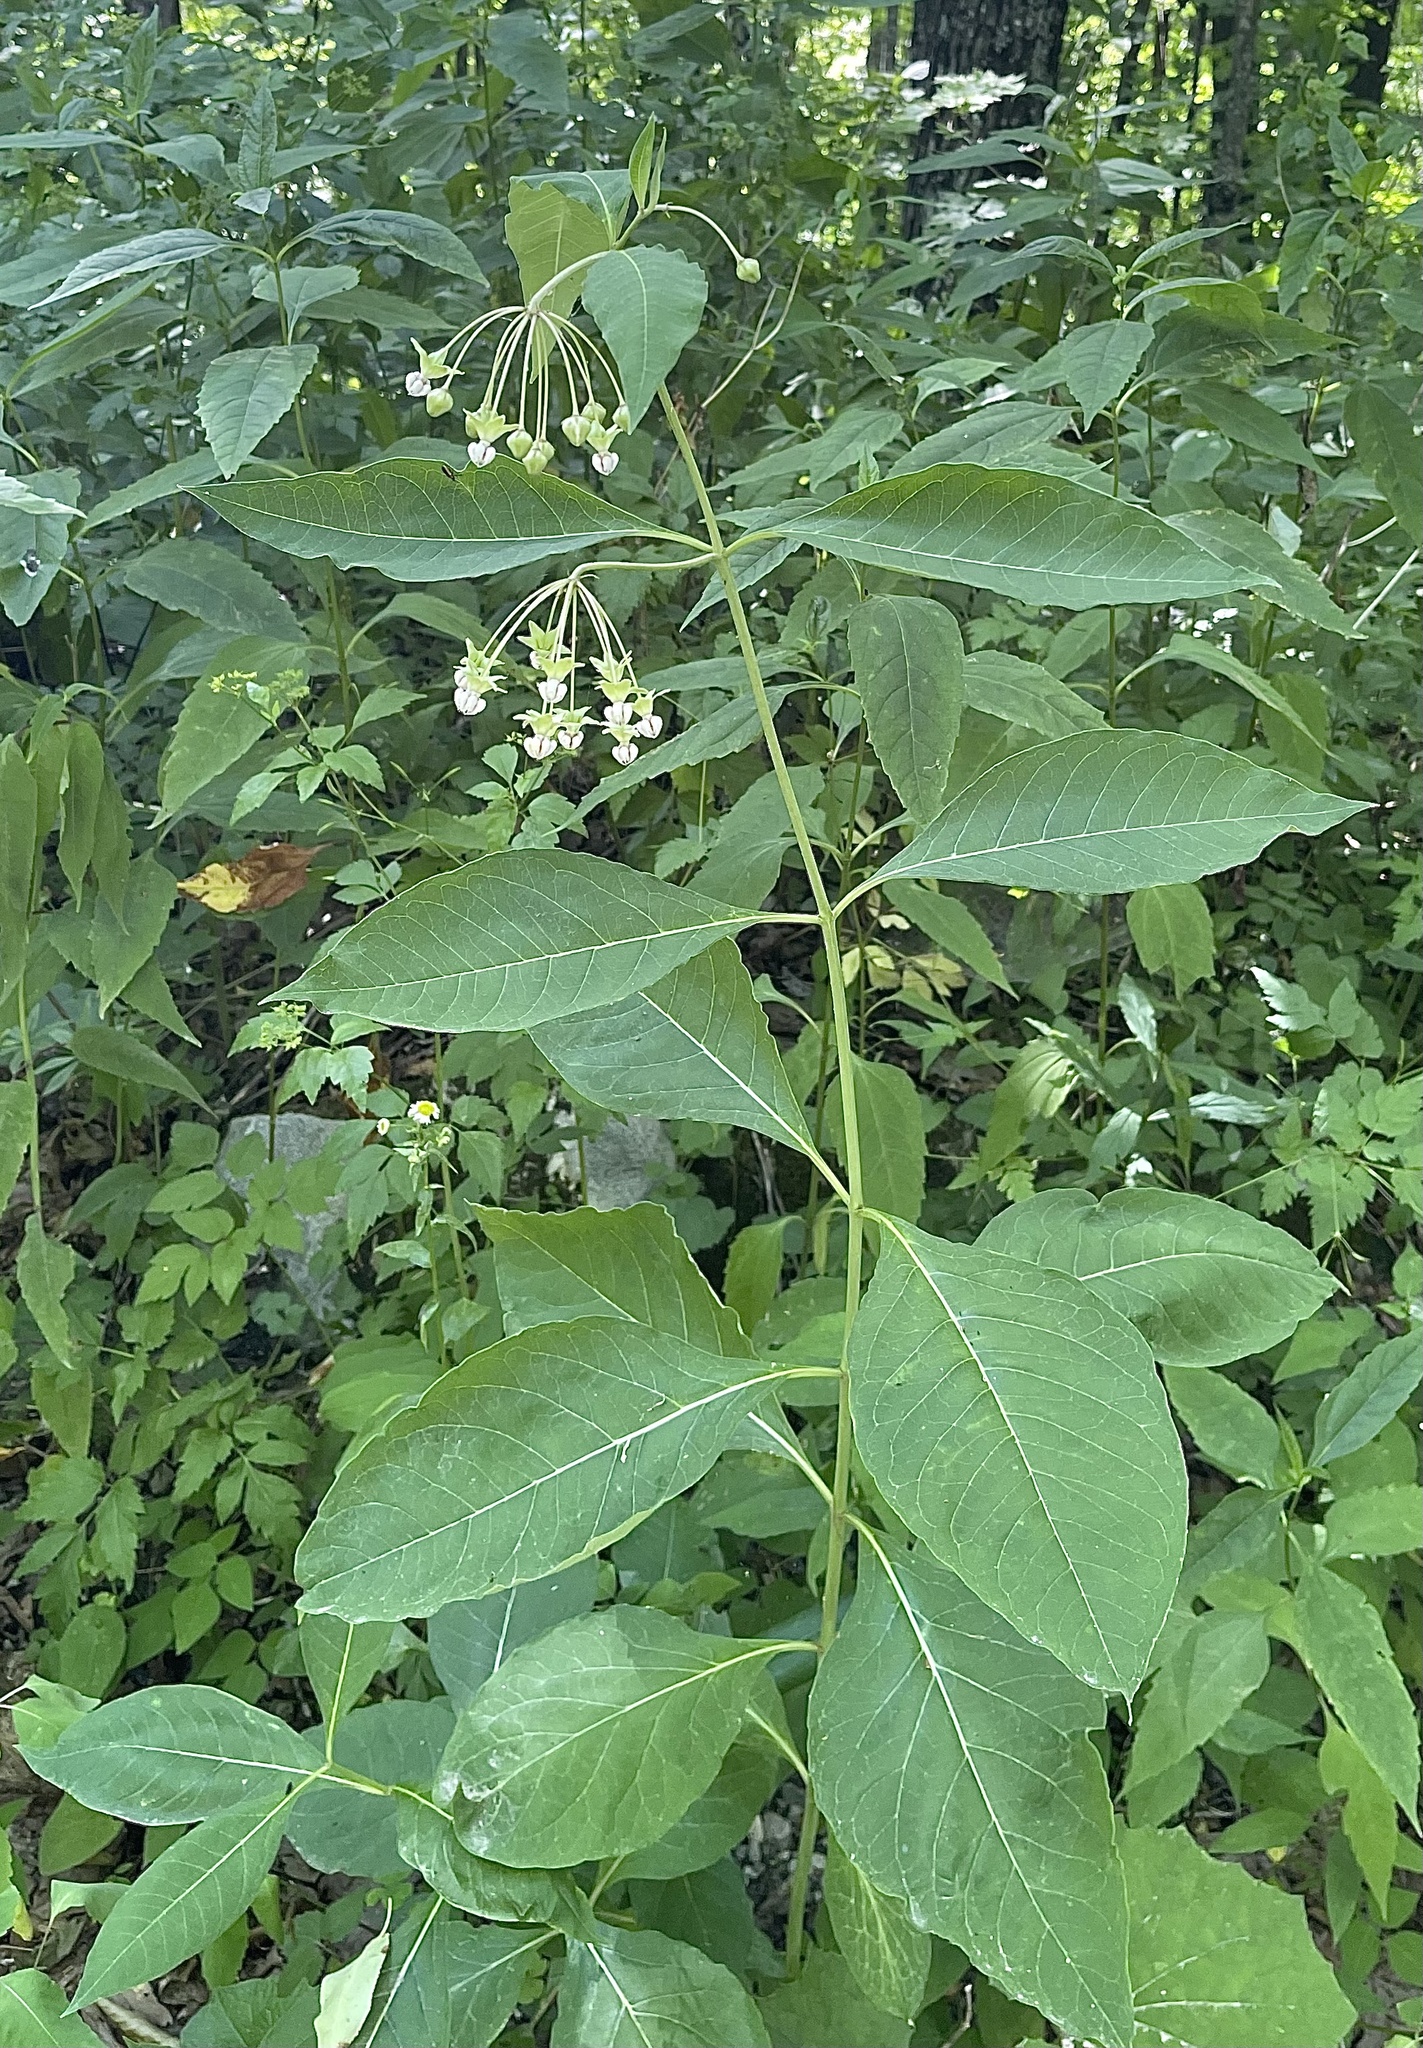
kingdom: Plantae
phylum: Tracheophyta
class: Magnoliopsida
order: Gentianales
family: Apocynaceae
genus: Asclepias
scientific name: Asclepias exaltata
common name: Poke milkweed
